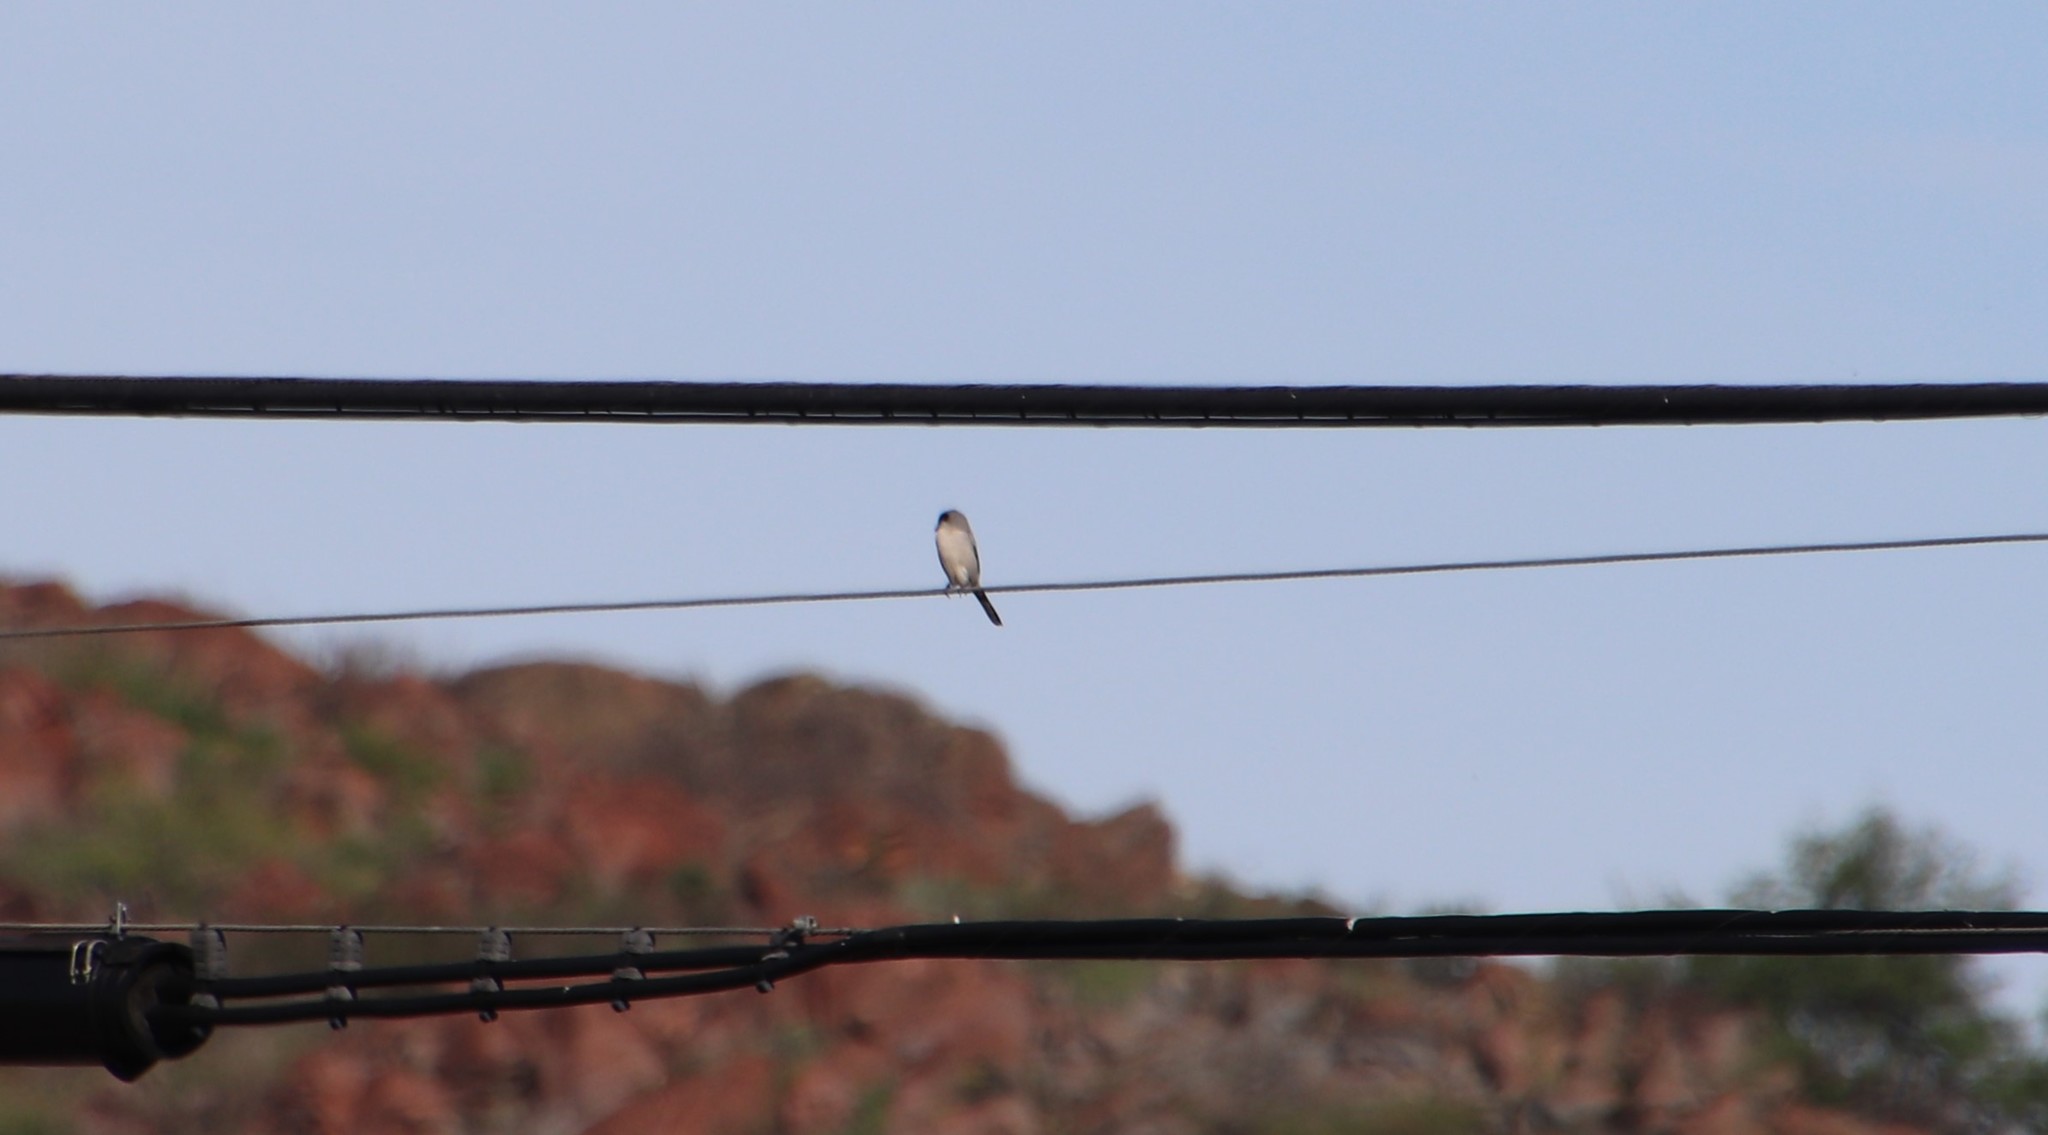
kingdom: Animalia
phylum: Chordata
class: Aves
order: Passeriformes
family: Laniidae
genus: Lanius
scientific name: Lanius ludovicianus
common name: Loggerhead shrike
